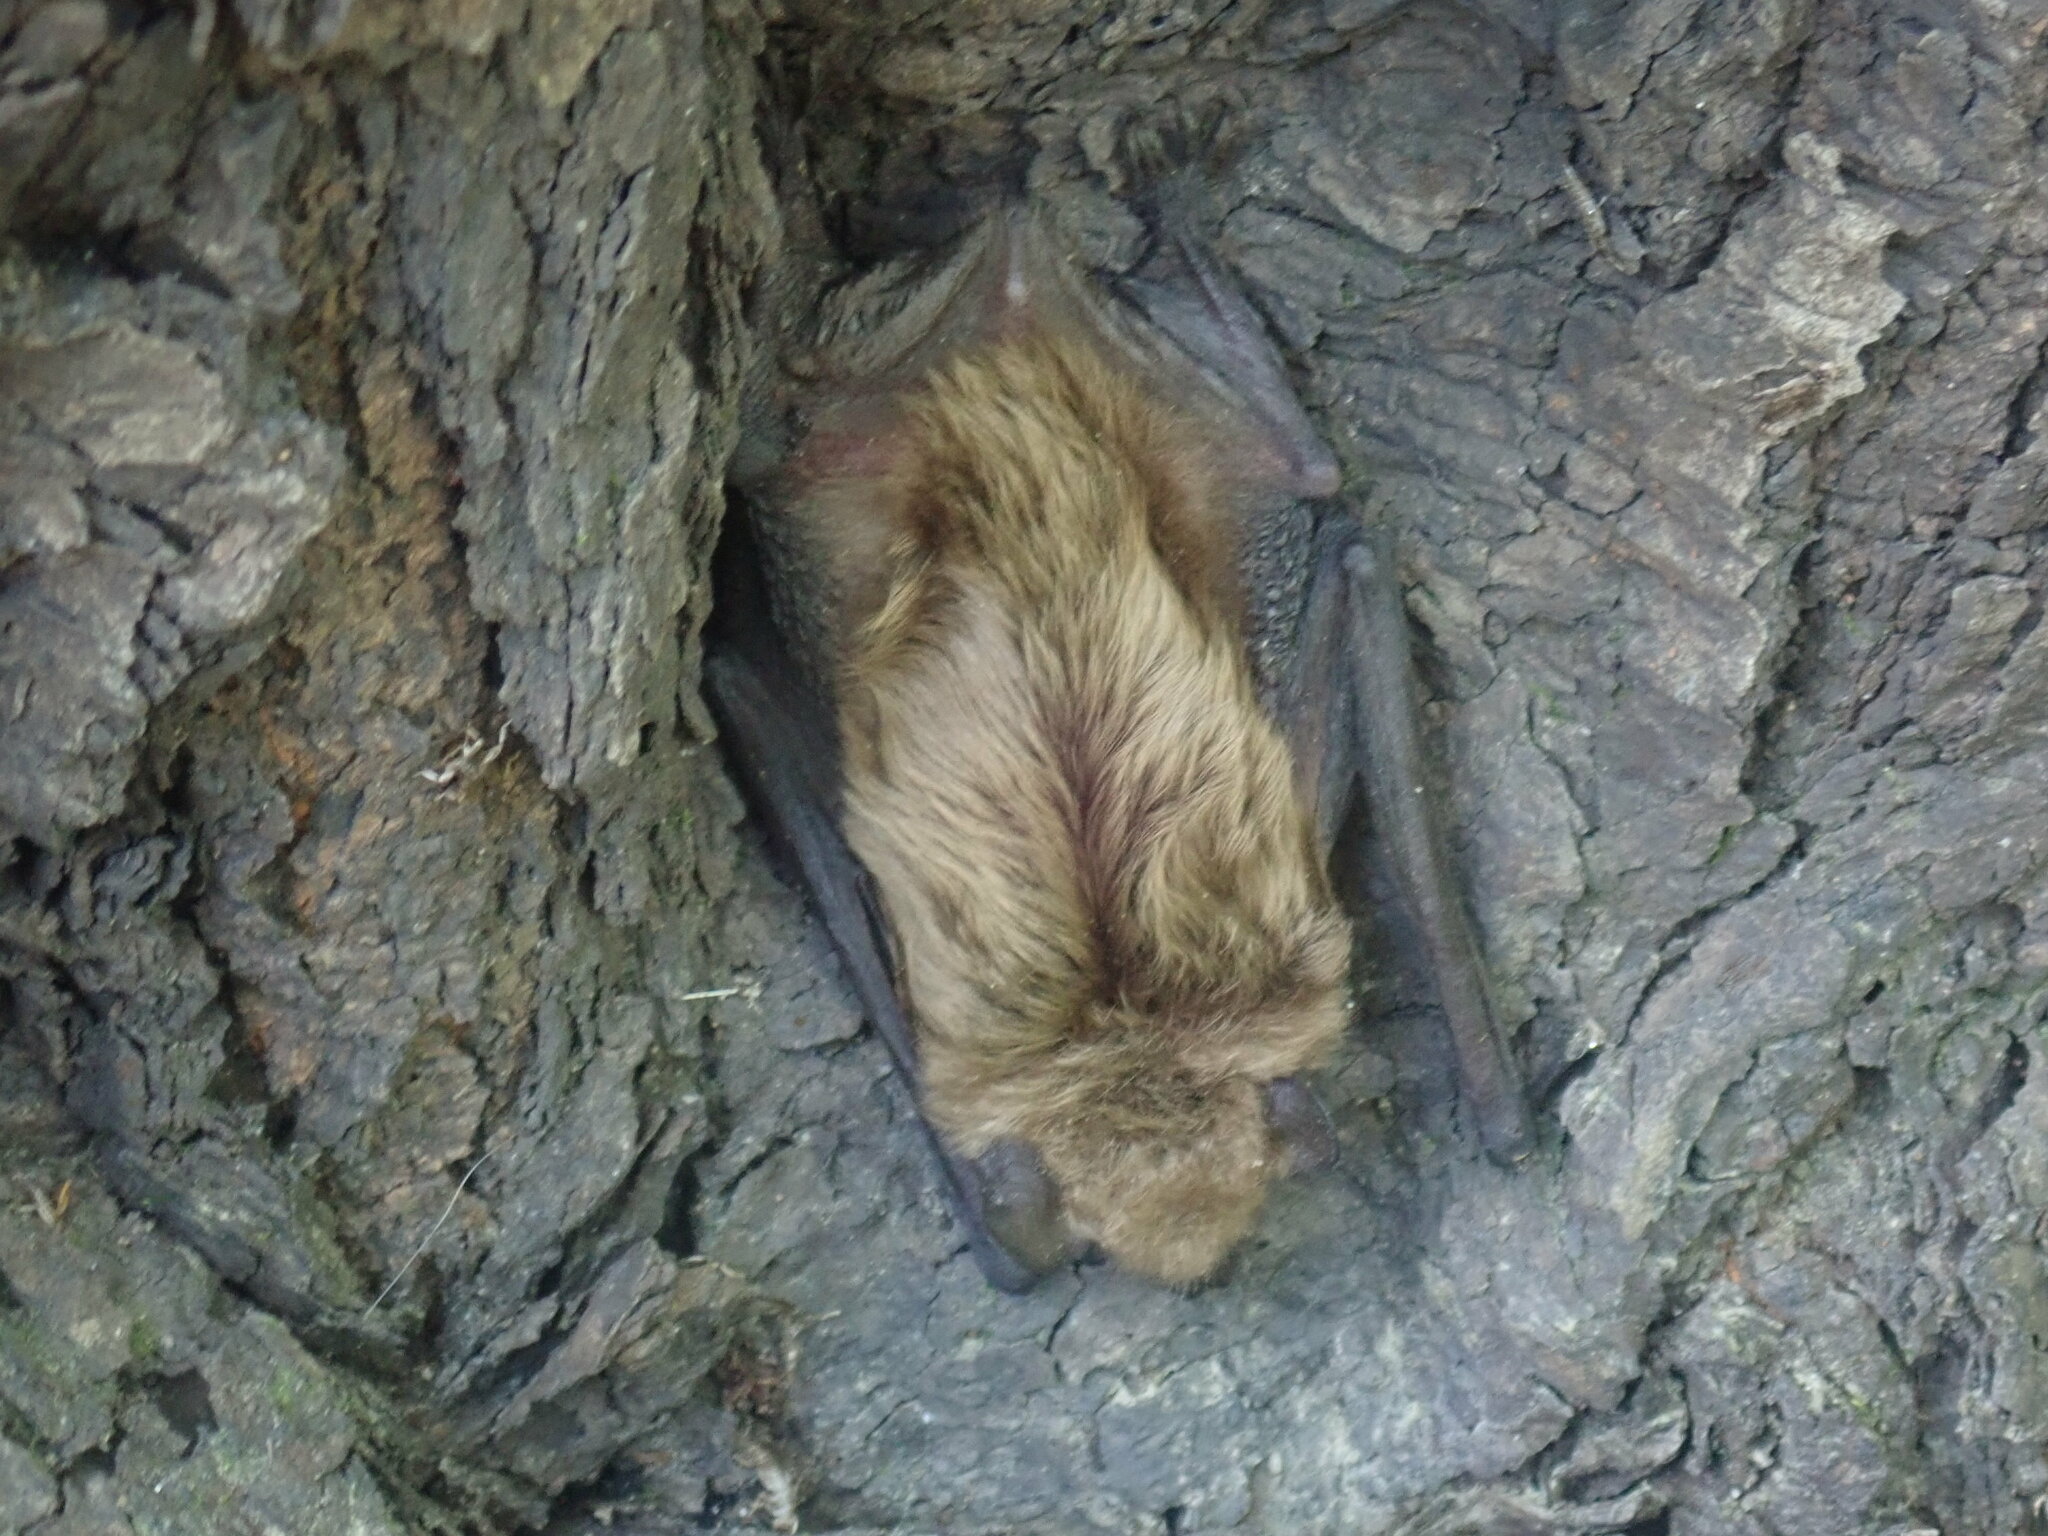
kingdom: Animalia
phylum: Chordata
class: Mammalia
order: Chiroptera
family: Vespertilionidae
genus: Eptesicus
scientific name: Eptesicus fuscus
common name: Big brown bat
